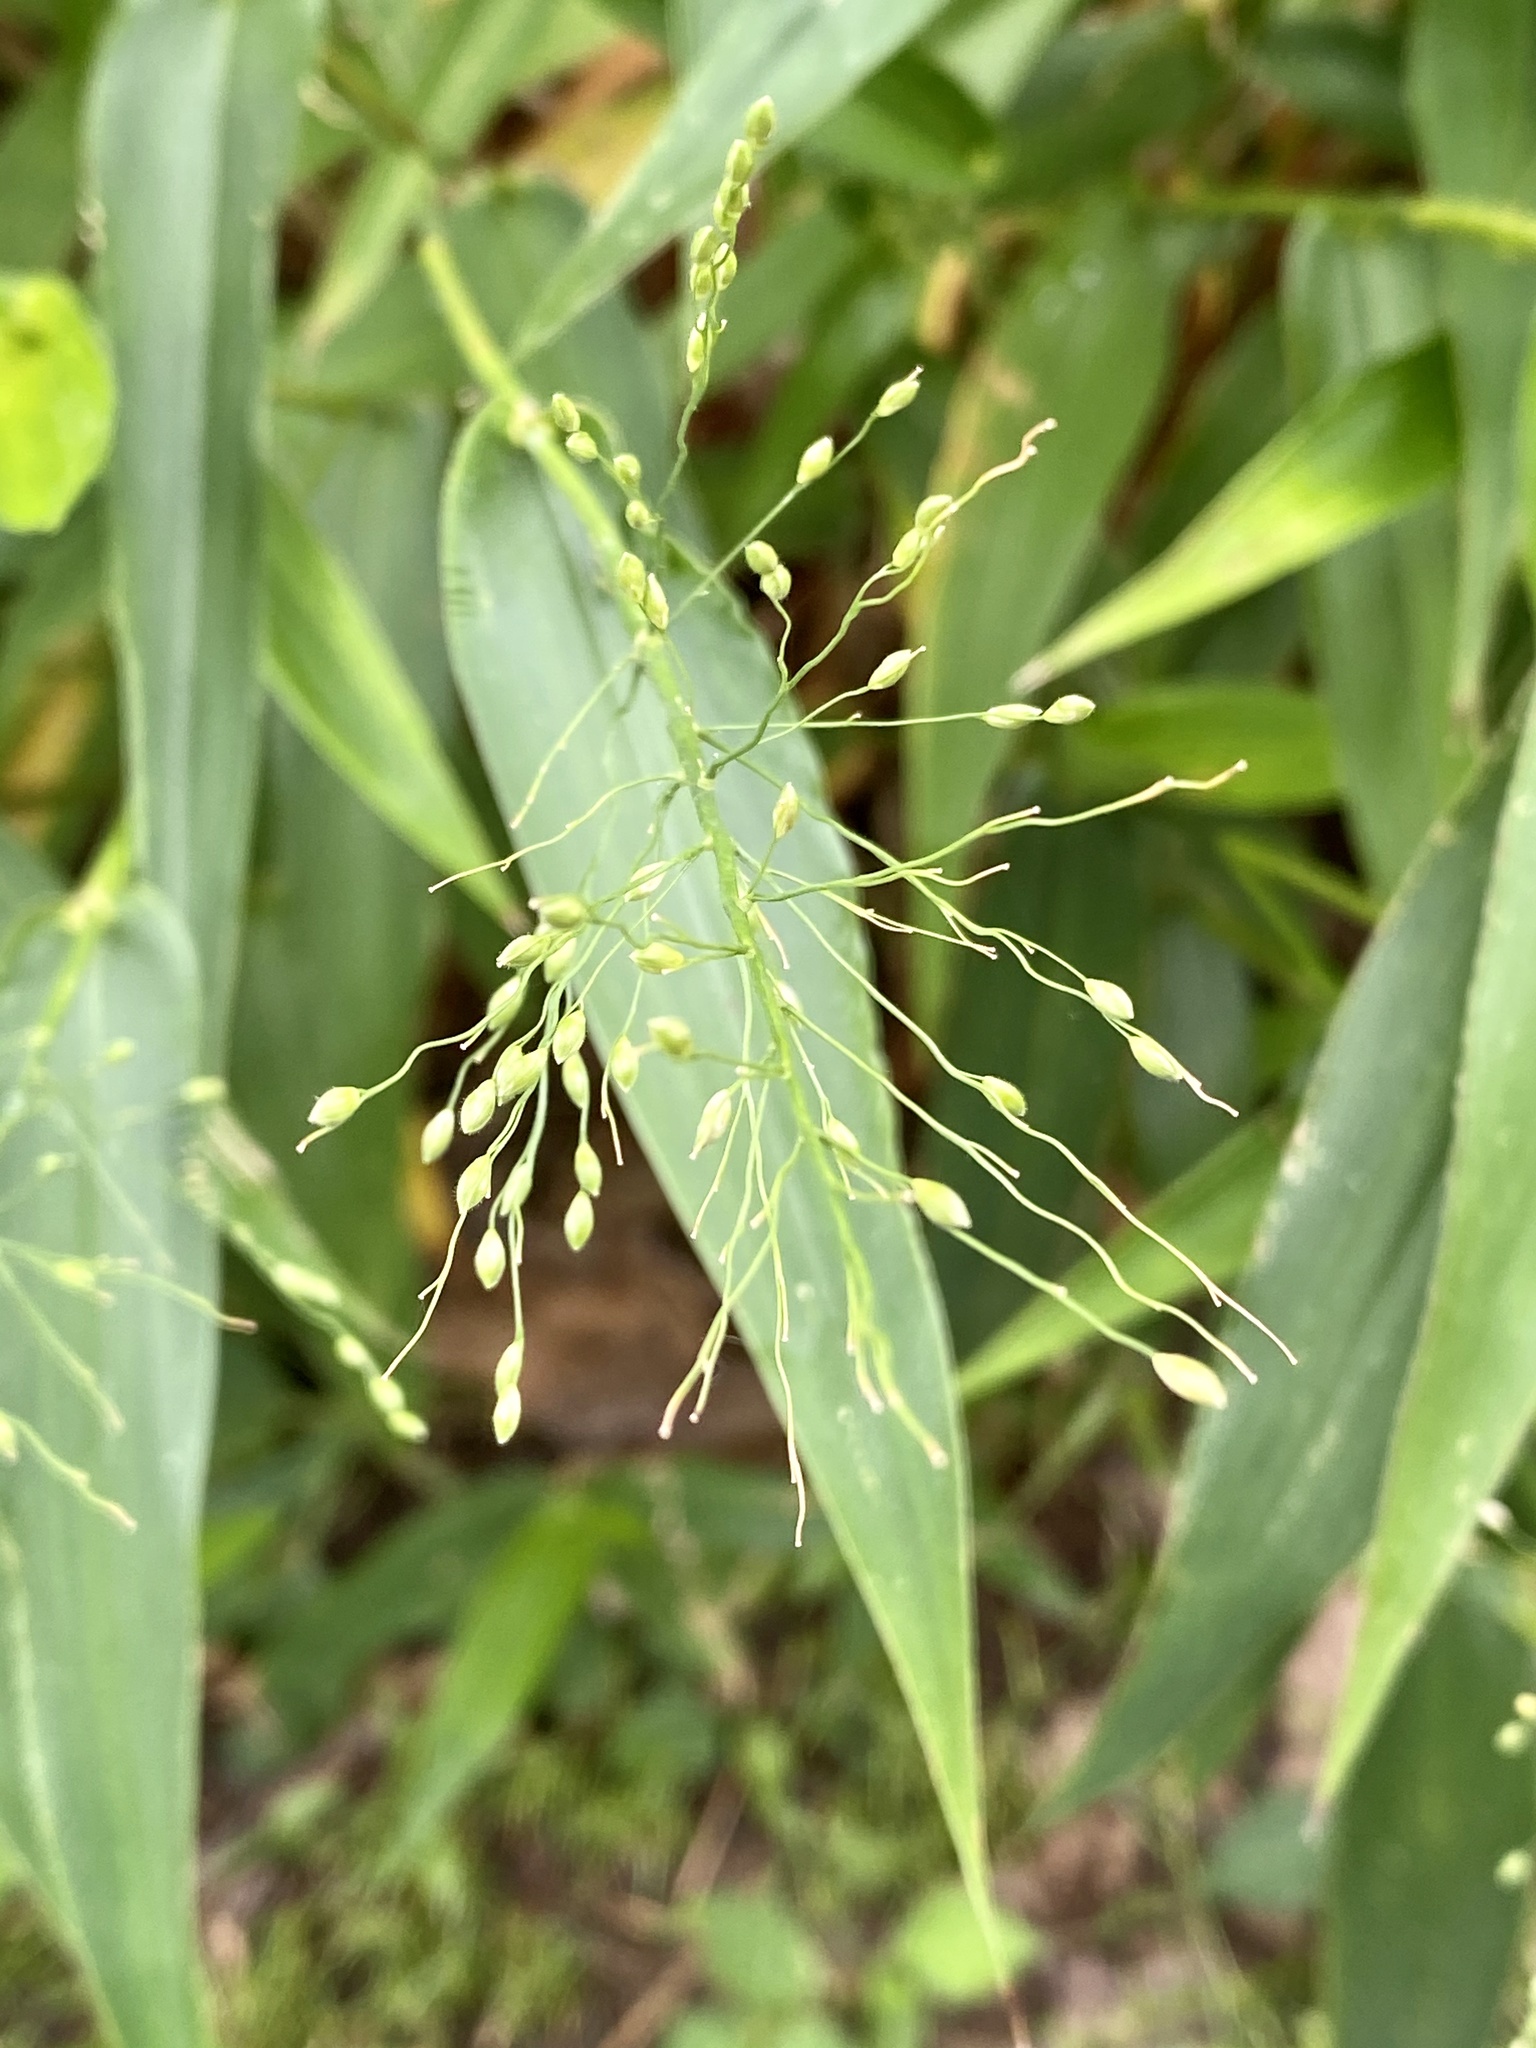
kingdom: Plantae
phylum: Tracheophyta
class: Liliopsida
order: Poales
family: Poaceae
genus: Dichanthelium
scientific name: Dichanthelium clandestinum
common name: Deer-tongue grass
